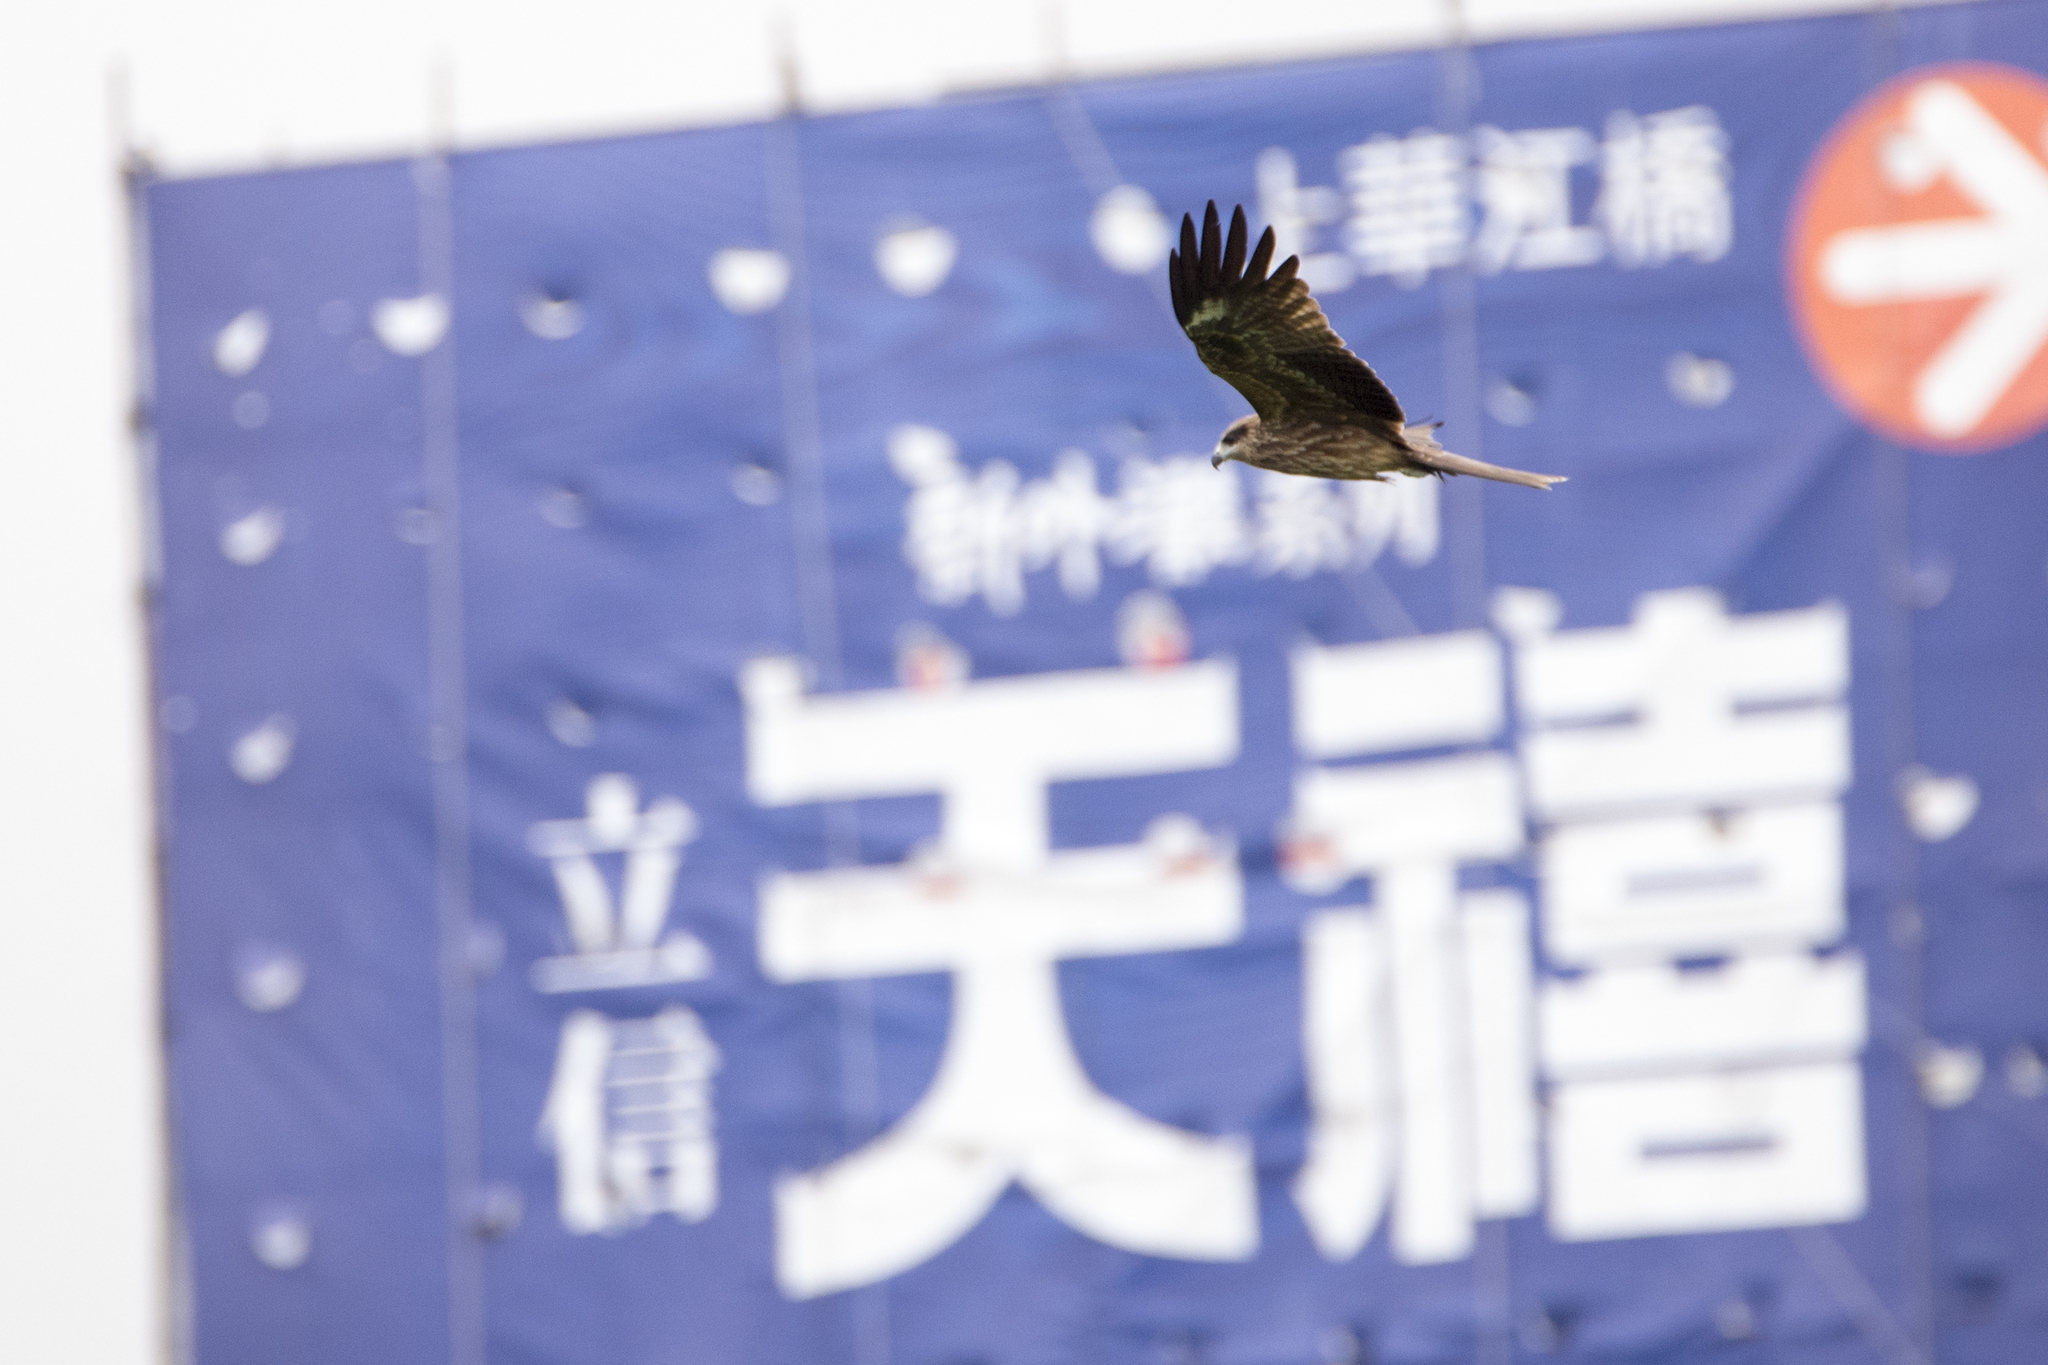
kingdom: Animalia
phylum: Chordata
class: Aves
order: Accipitriformes
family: Accipitridae
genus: Milvus
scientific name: Milvus migrans
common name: Black kite
